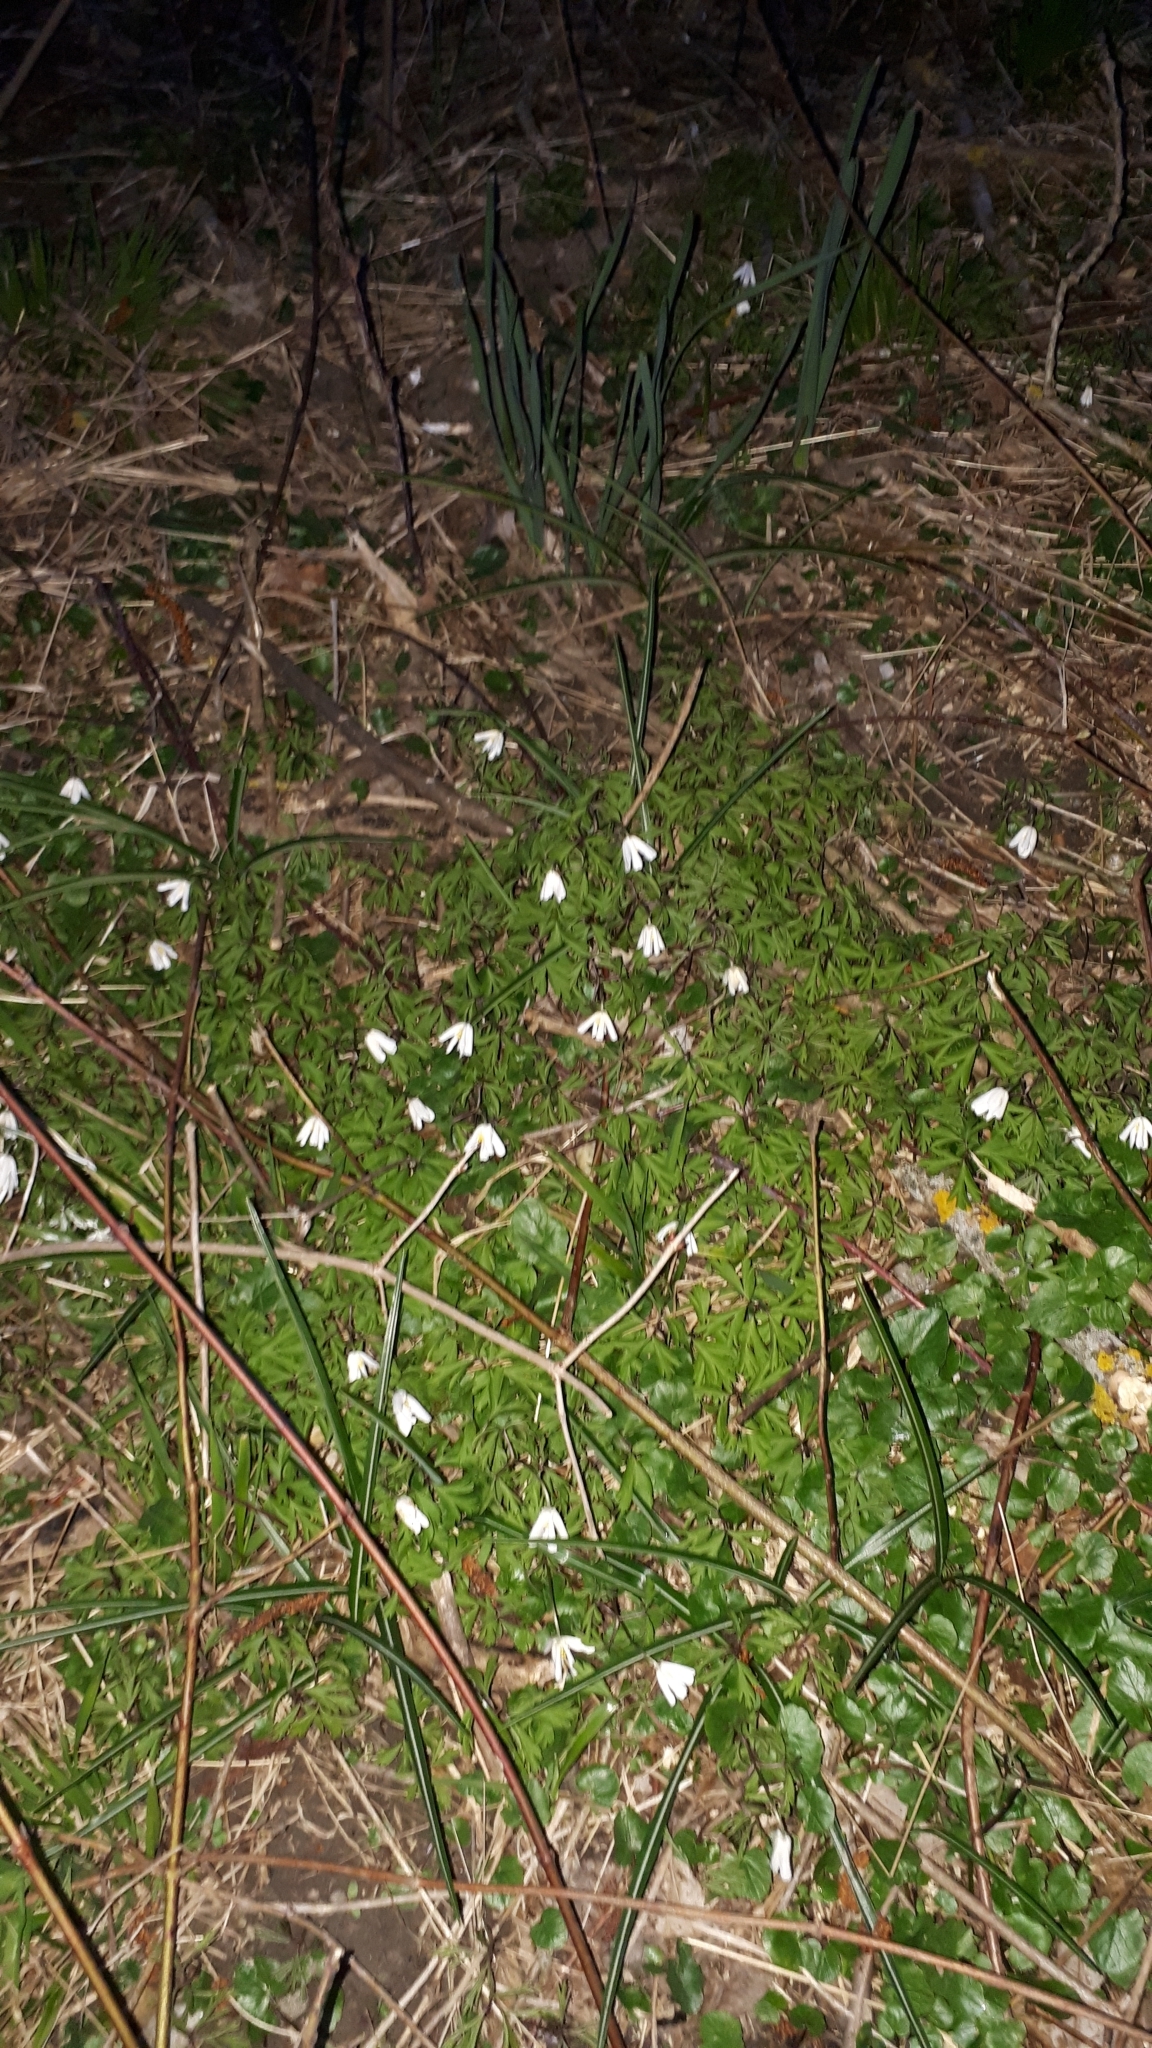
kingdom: Plantae
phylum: Tracheophyta
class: Magnoliopsida
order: Ranunculales
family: Ranunculaceae
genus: Anemone
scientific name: Anemone nemorosa
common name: Wood anemone
